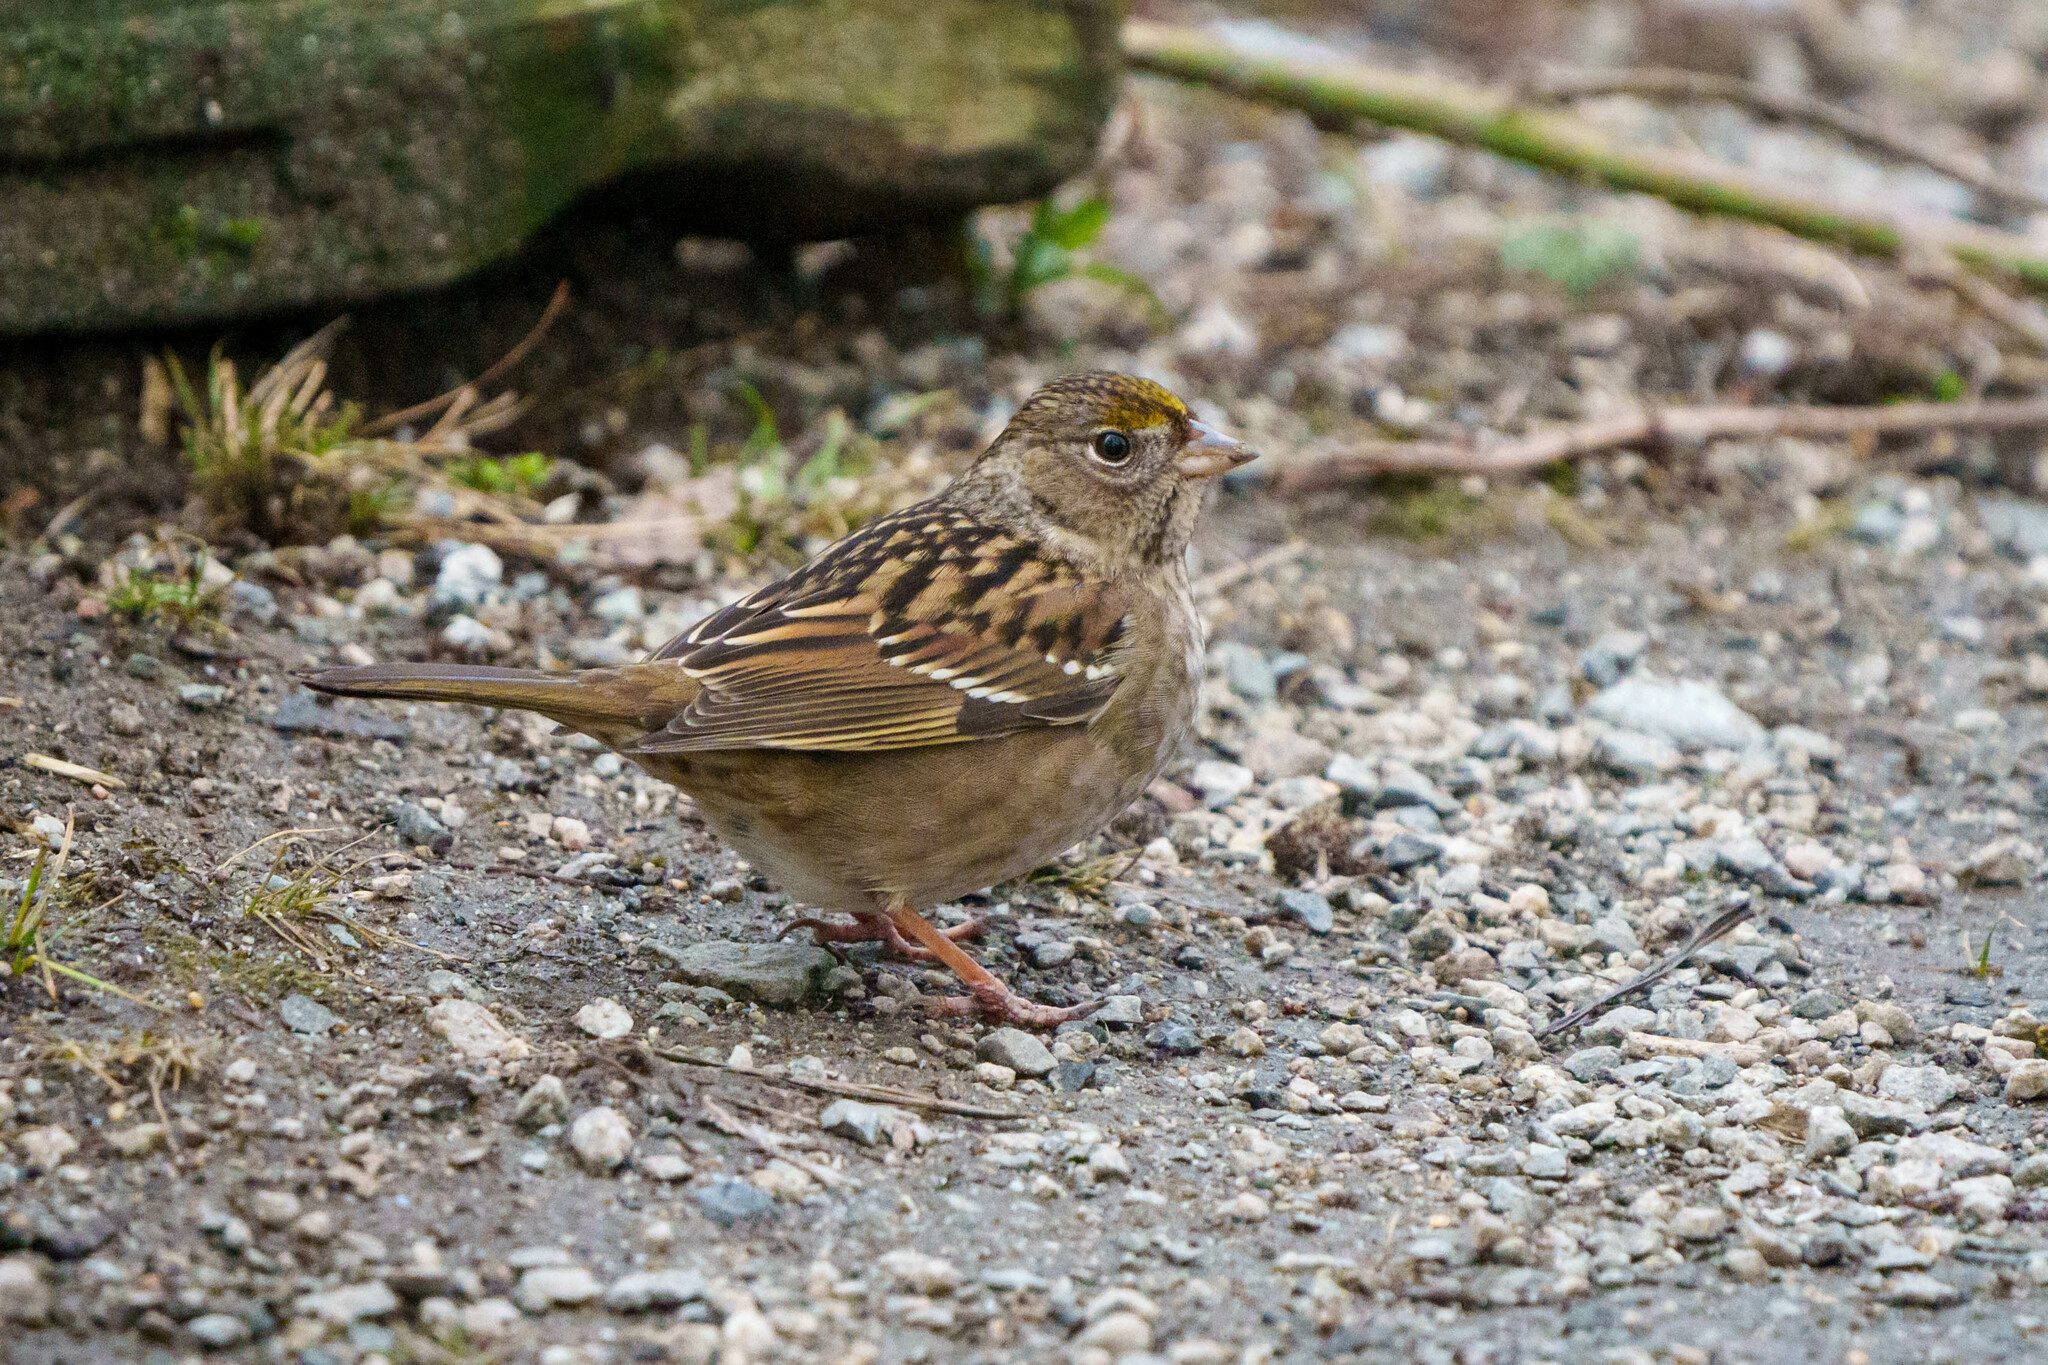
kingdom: Animalia
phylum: Chordata
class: Aves
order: Passeriformes
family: Passerellidae
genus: Zonotrichia
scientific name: Zonotrichia atricapilla
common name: Golden-crowned sparrow
